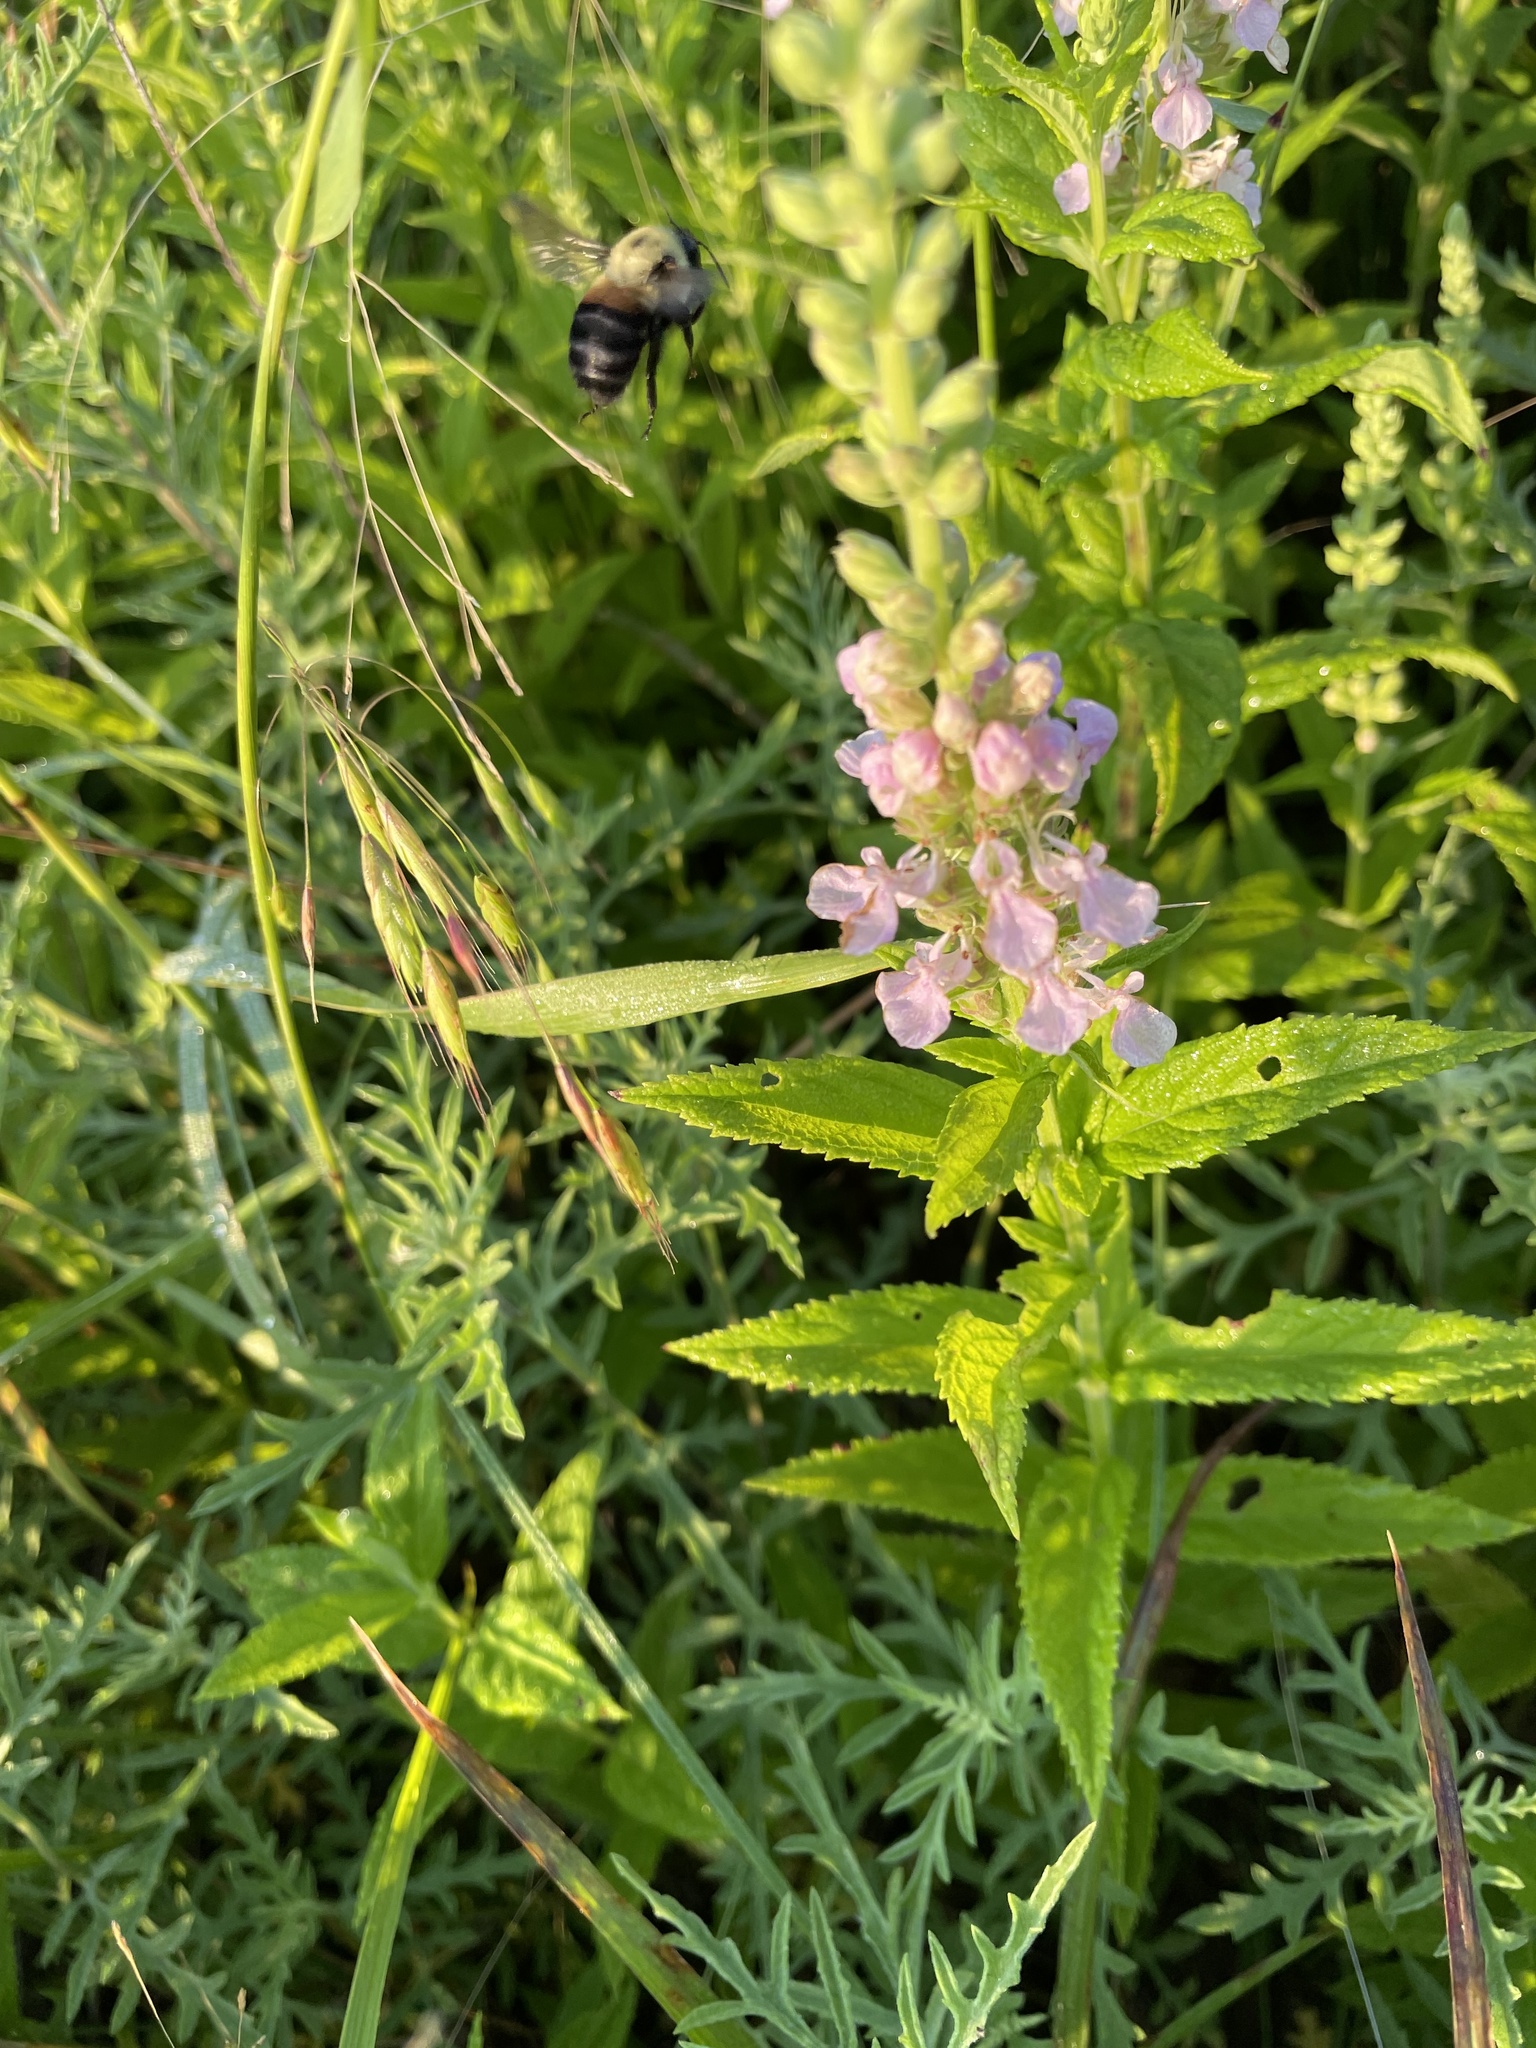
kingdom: Animalia
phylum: Arthropoda
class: Insecta
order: Hymenoptera
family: Apidae
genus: Bombus
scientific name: Bombus griseocollis
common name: Brown-belted bumble bee
